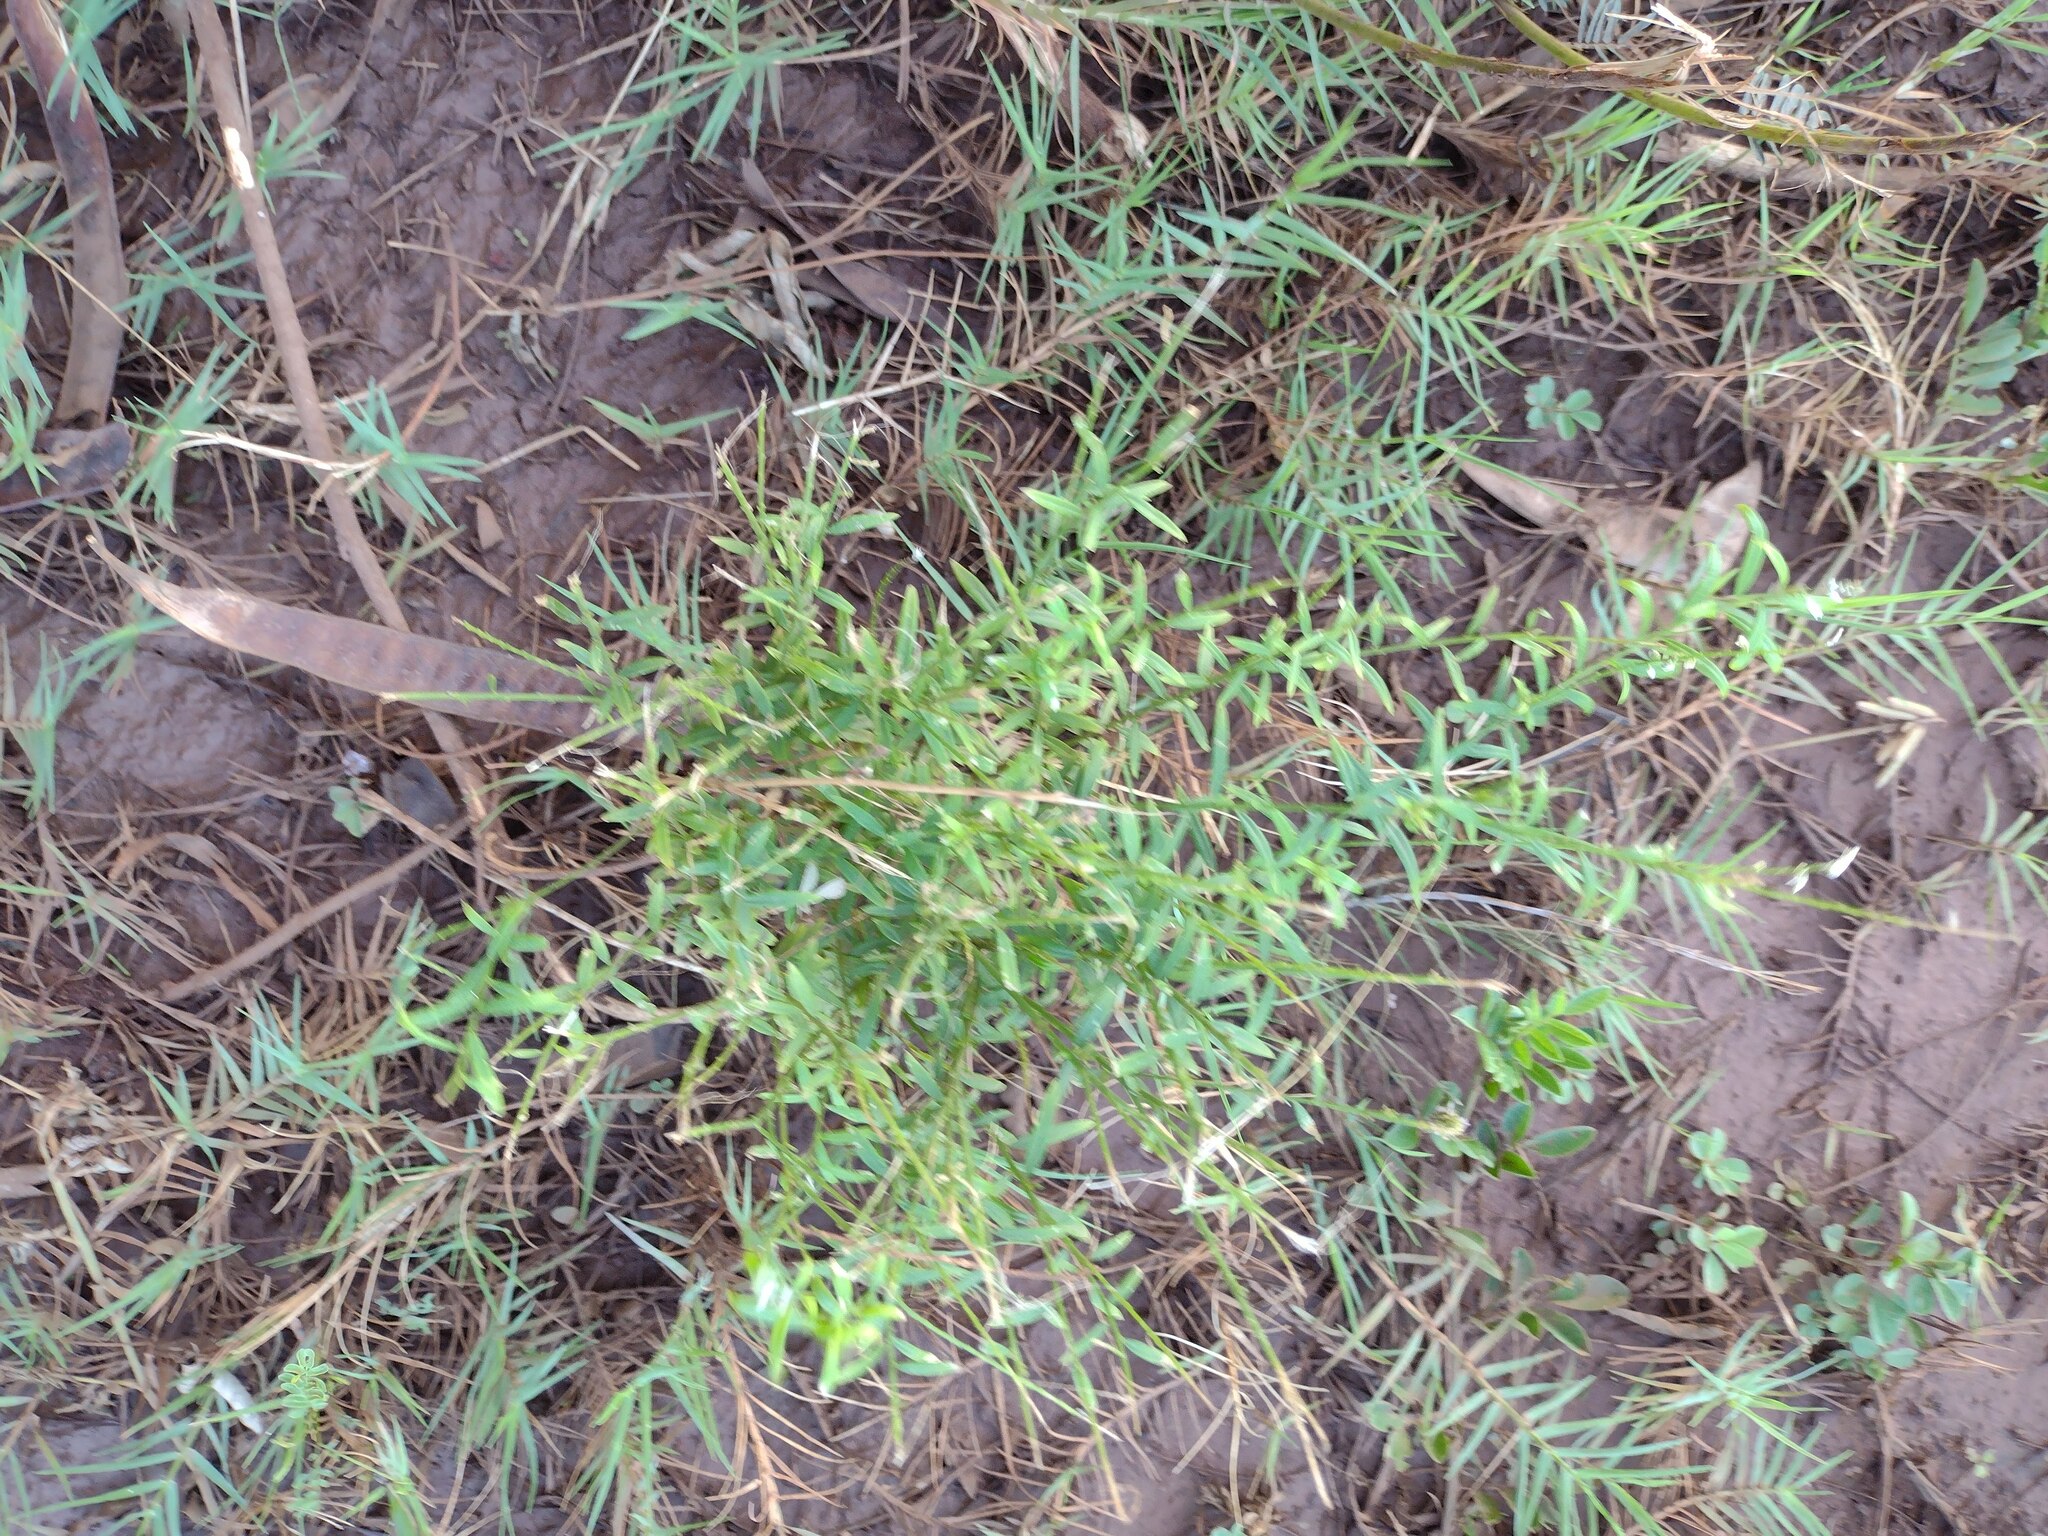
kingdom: Plantae
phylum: Tracheophyta
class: Magnoliopsida
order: Fabales
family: Polygalaceae
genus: Polygala
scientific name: Polygala paniculata
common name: Orosne
